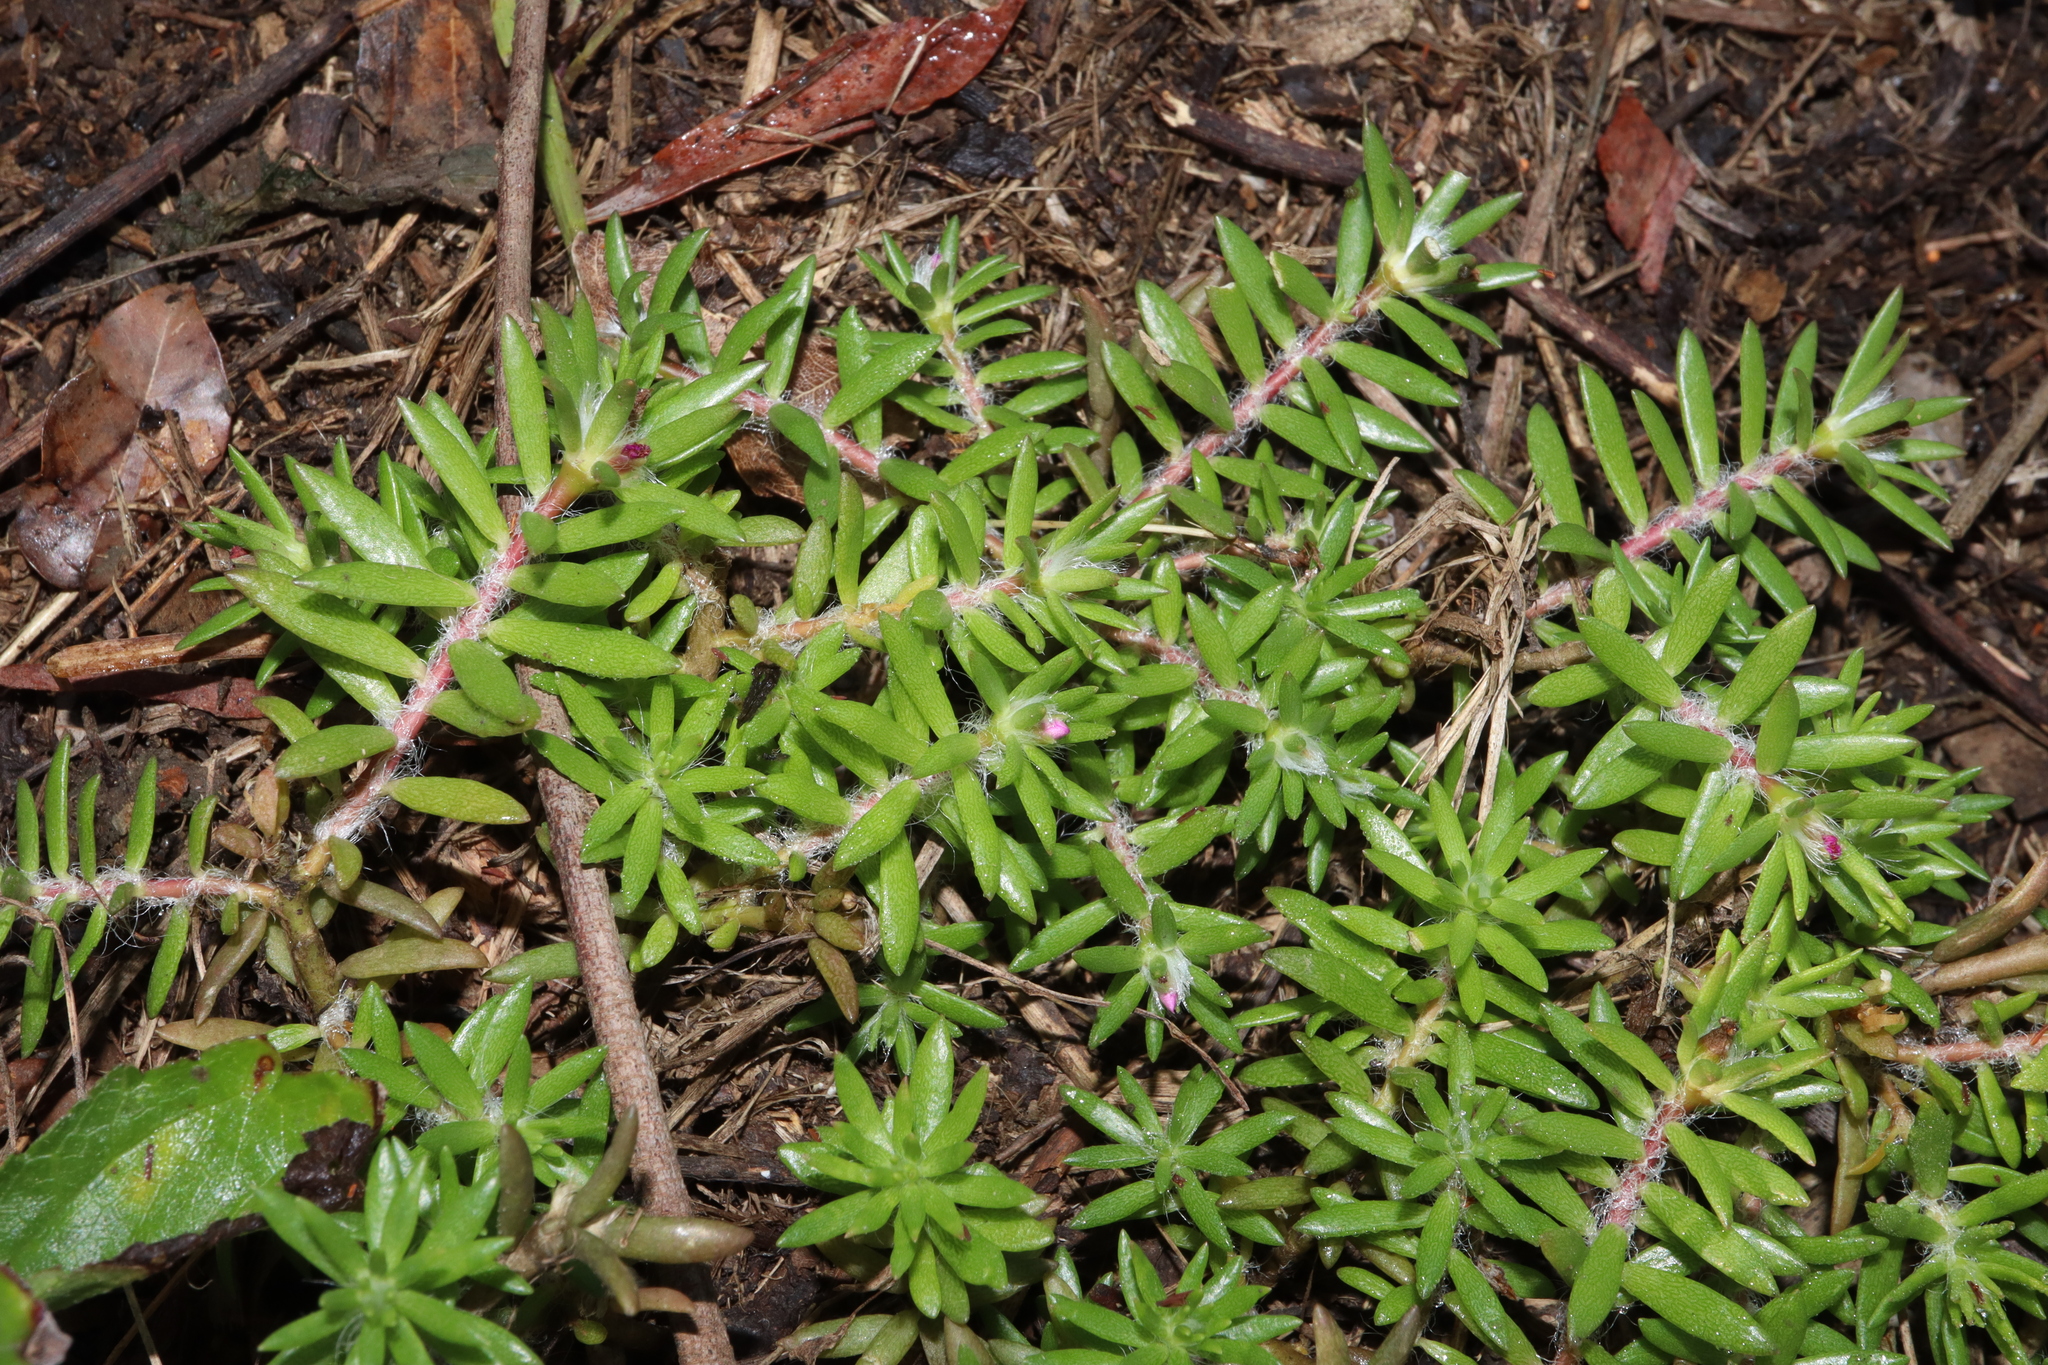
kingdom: Plantae
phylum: Tracheophyta
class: Magnoliopsida
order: Caryophyllales
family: Portulacaceae
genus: Portulaca
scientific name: Portulaca pilosa
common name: Kiss me quick
